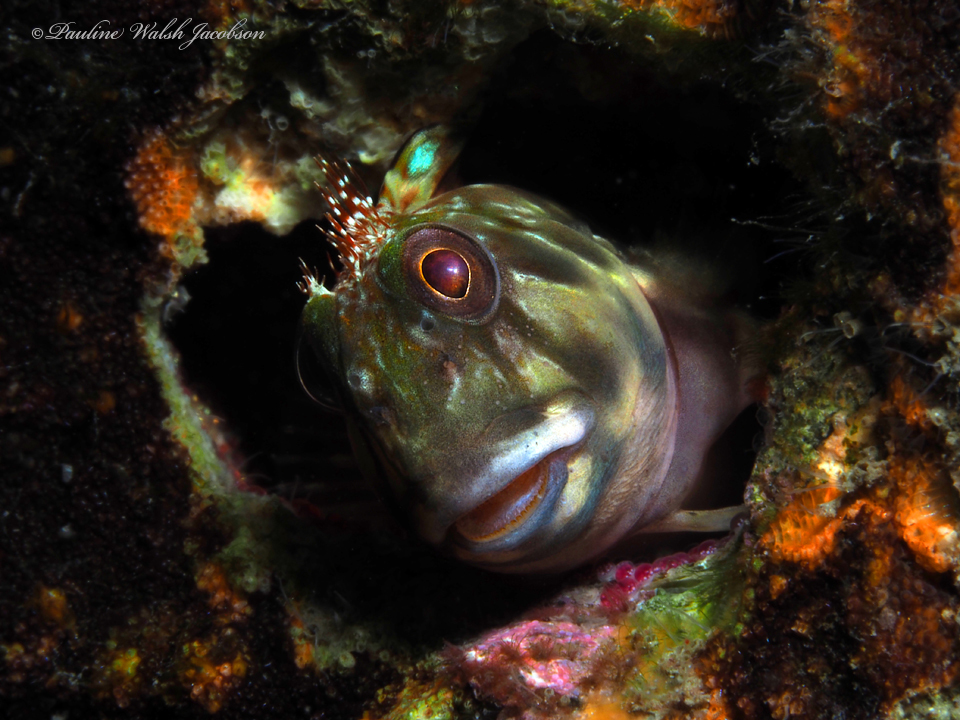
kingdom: Animalia
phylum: Chordata
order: Perciformes
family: Blenniidae
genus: Scartella
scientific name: Scartella cristata
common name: Molly miller
